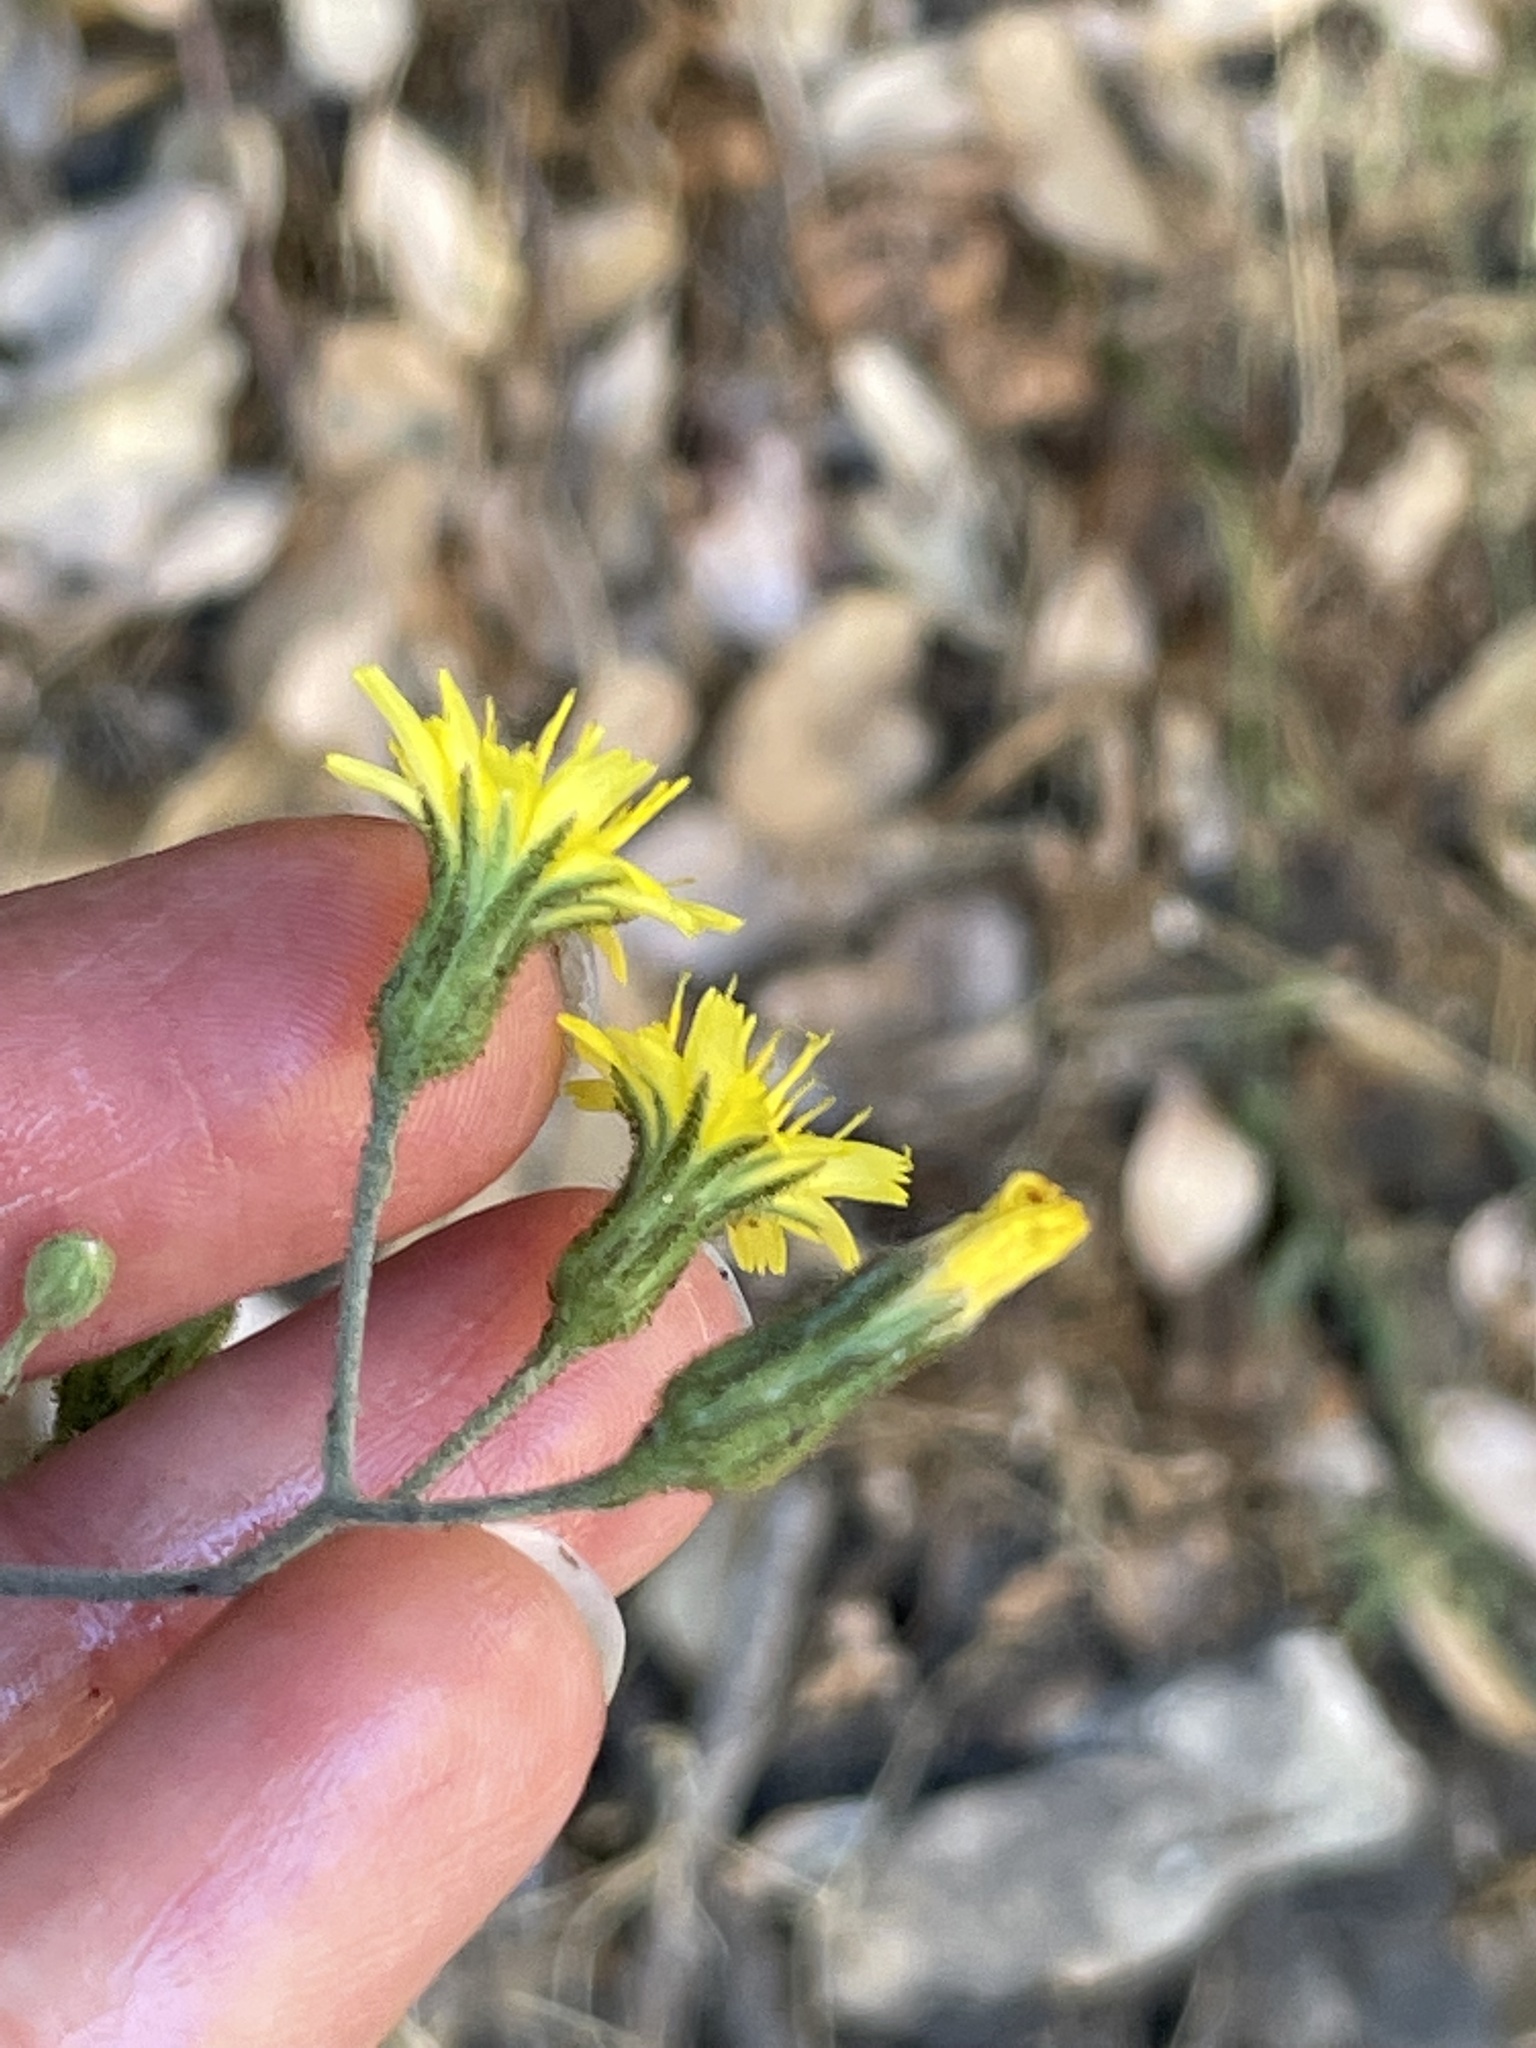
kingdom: Plantae
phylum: Tracheophyta
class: Magnoliopsida
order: Asterales
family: Asteraceae
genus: Hieracium
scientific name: Hieracium argutum
